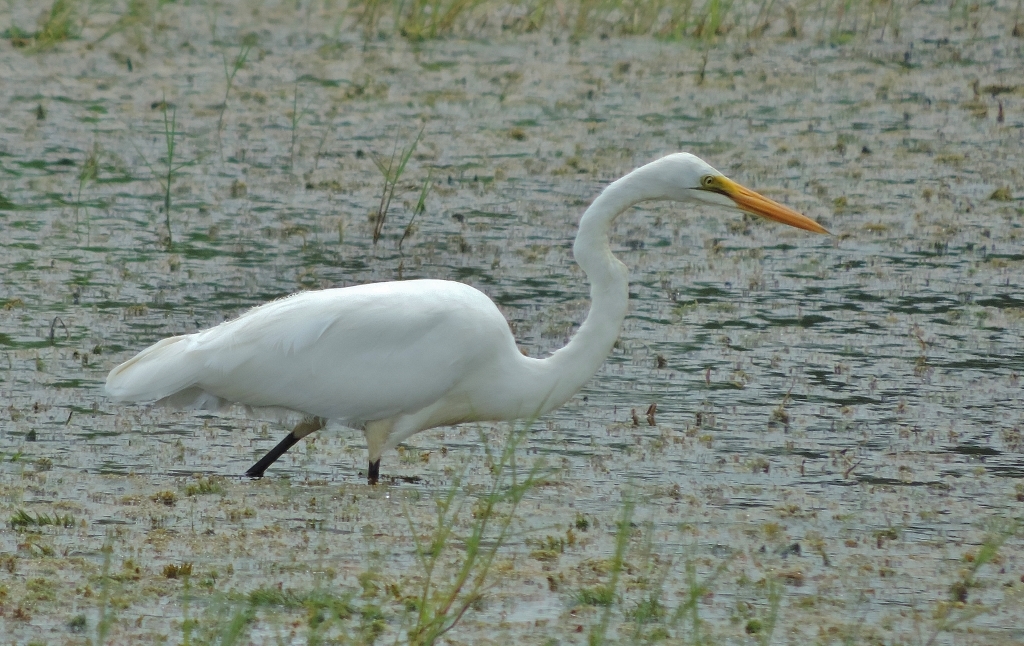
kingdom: Animalia
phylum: Chordata
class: Aves
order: Pelecaniformes
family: Ardeidae
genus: Ardea
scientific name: Ardea alba
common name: Great egret
